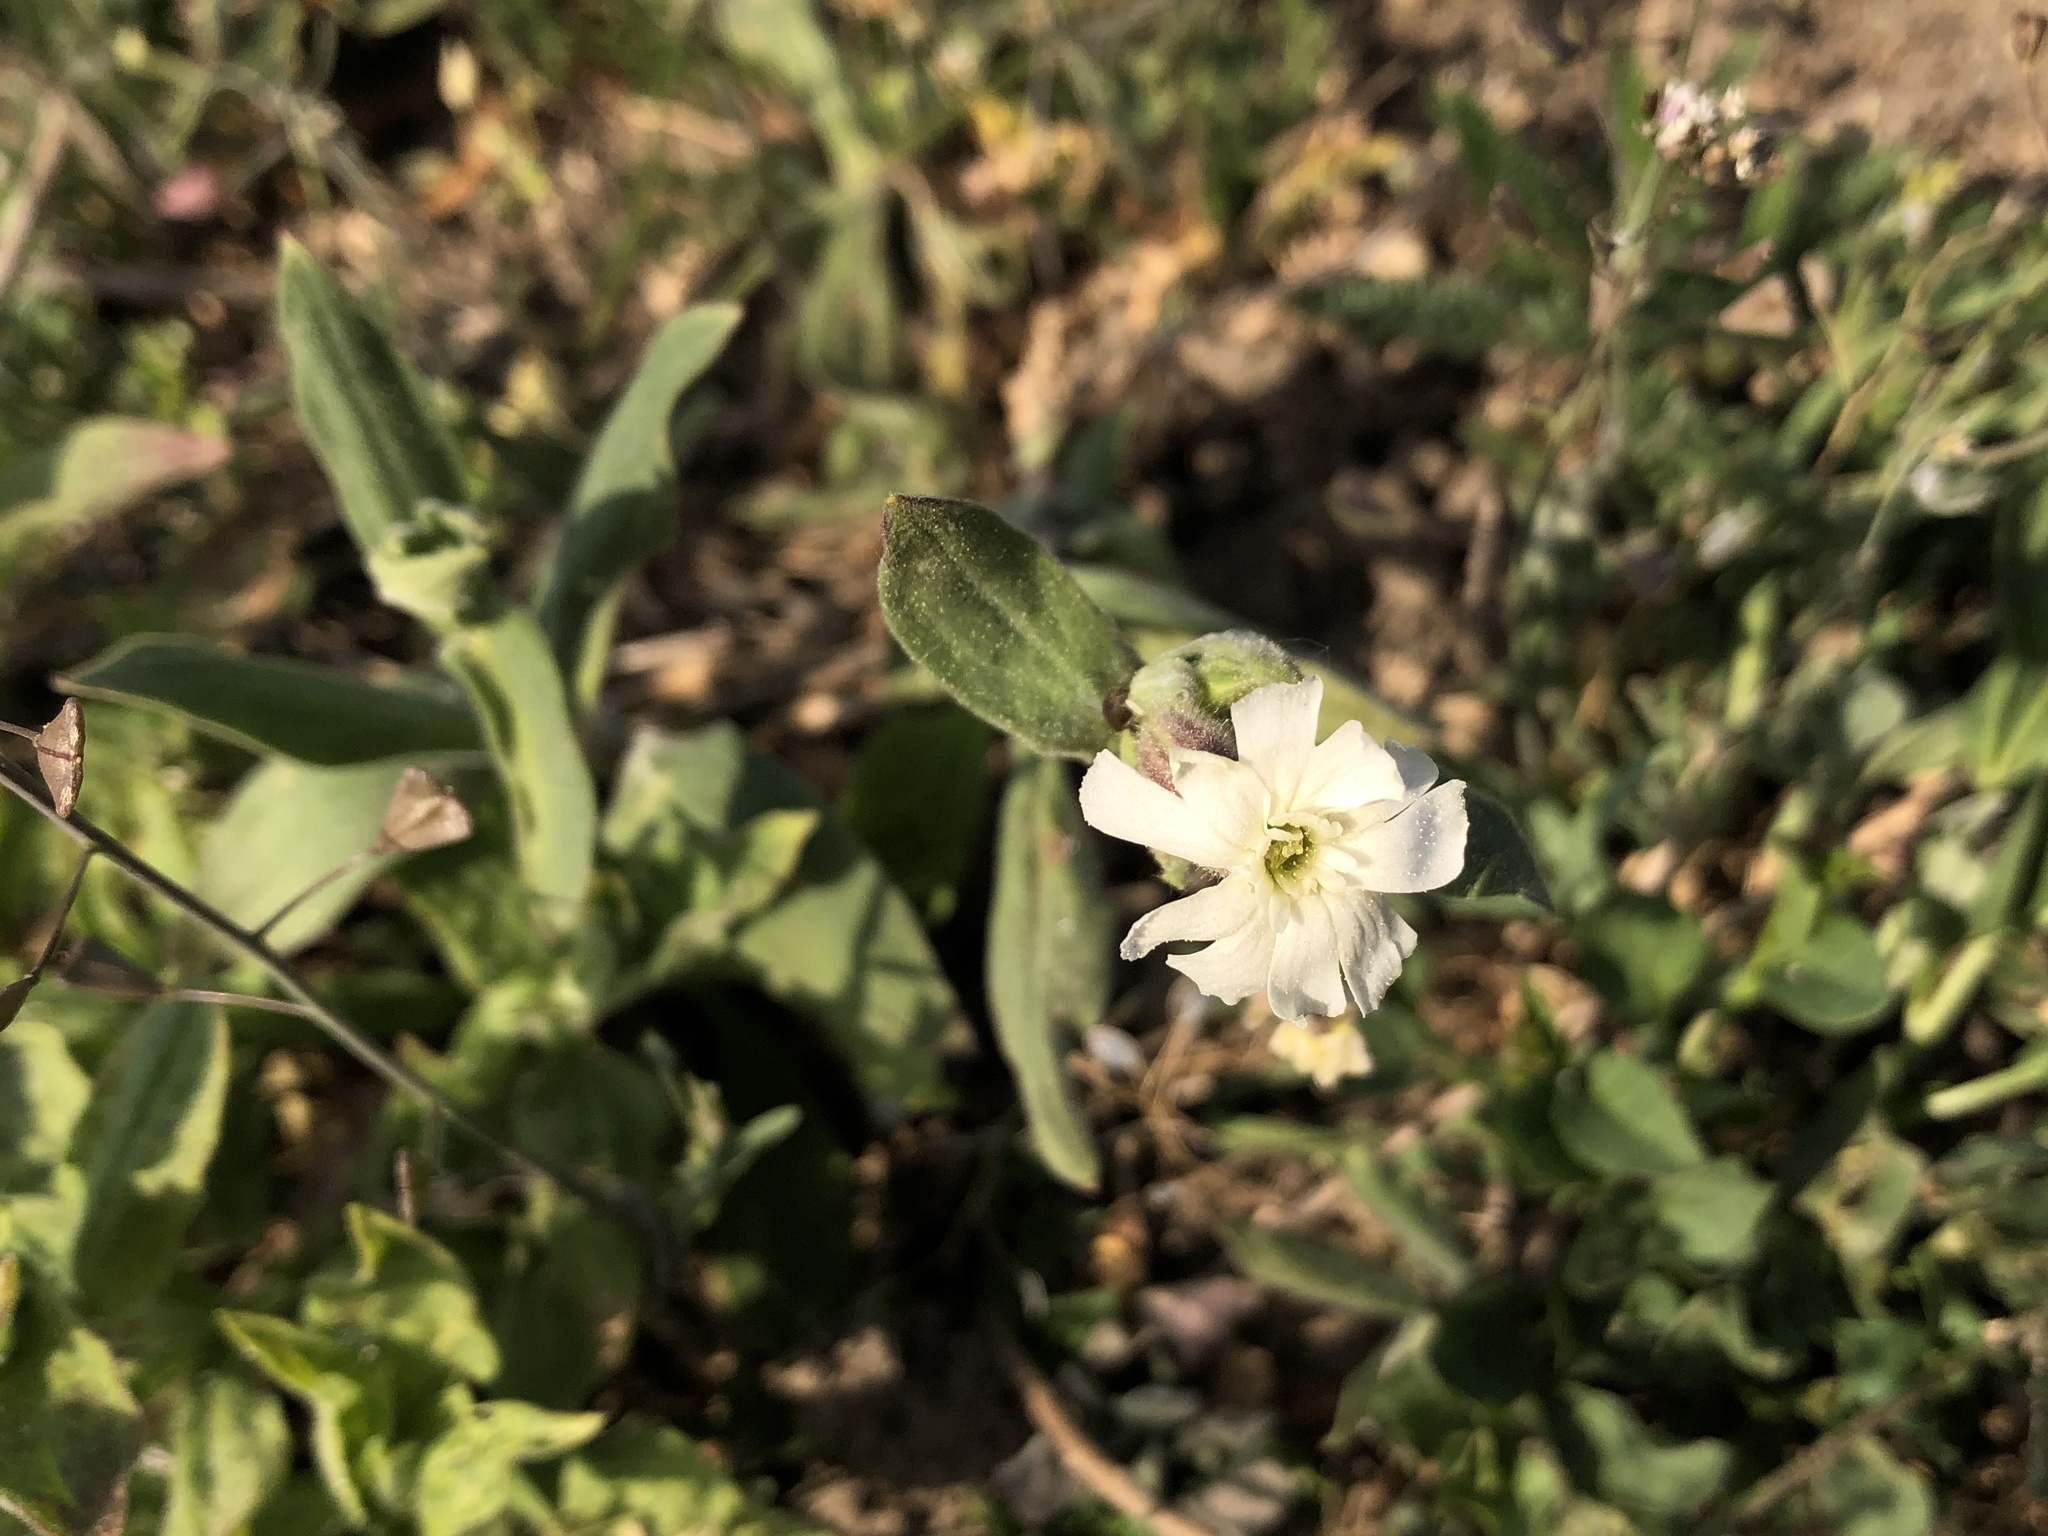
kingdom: Plantae
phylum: Tracheophyta
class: Magnoliopsida
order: Caryophyllales
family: Caryophyllaceae
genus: Silene
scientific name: Silene latifolia
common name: White campion
